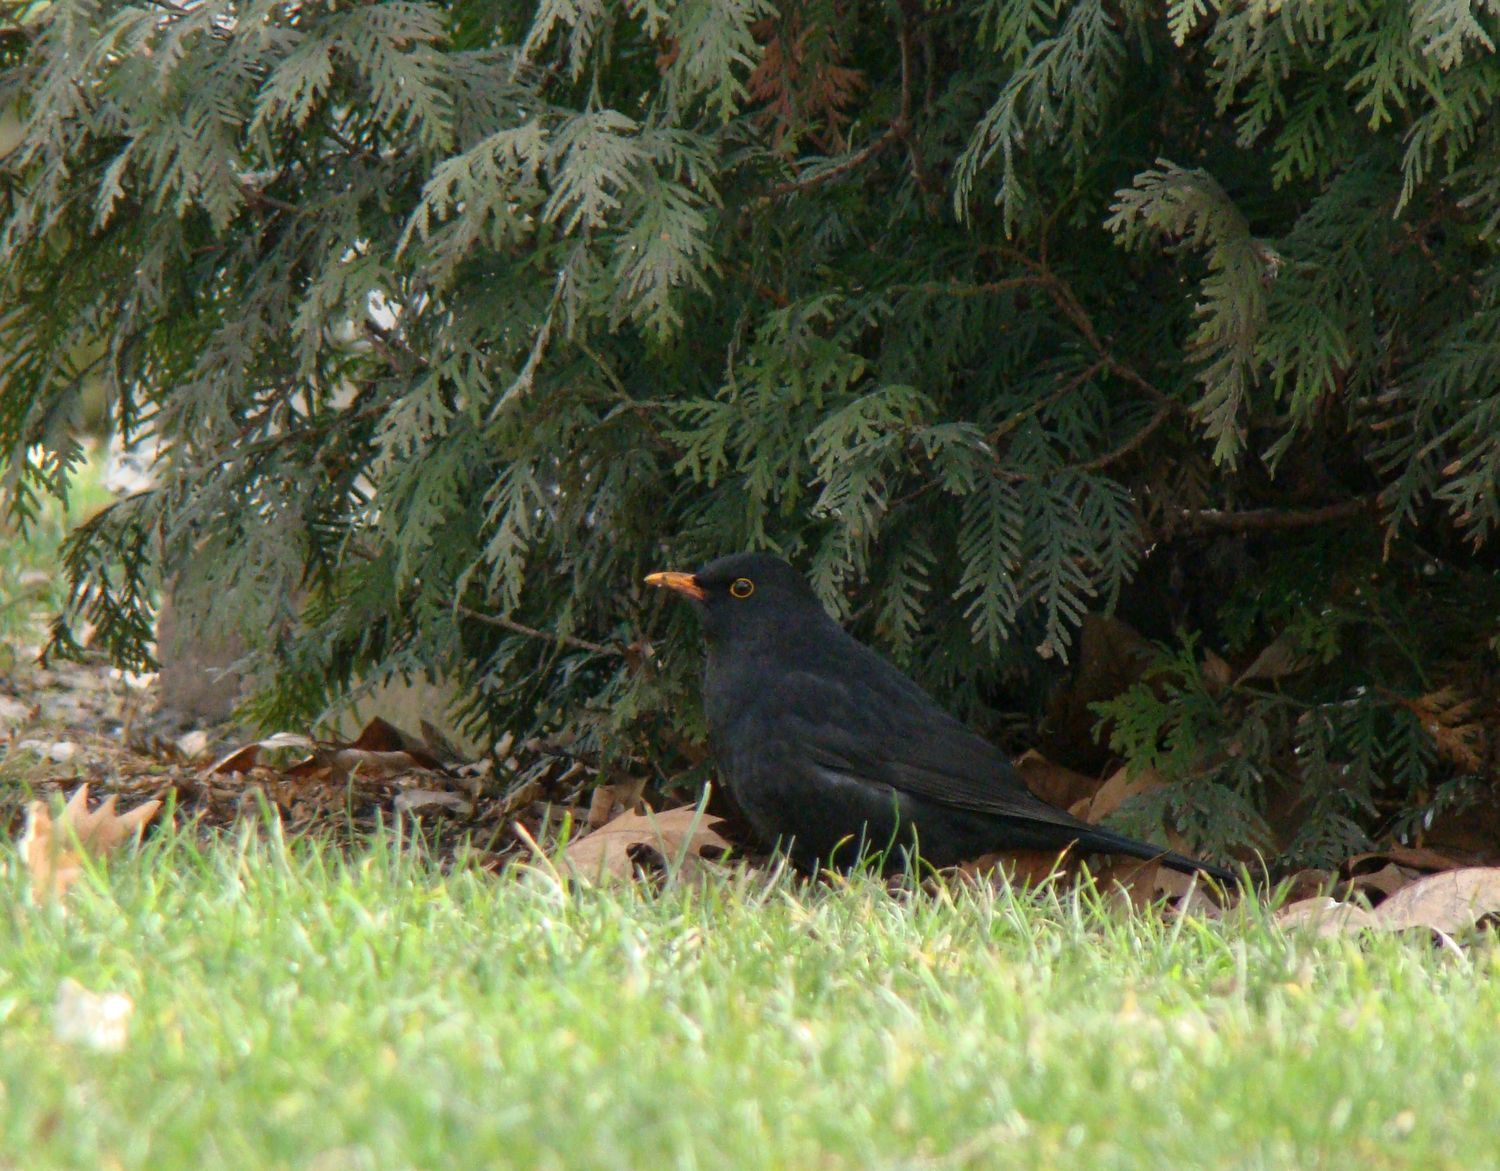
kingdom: Animalia
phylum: Chordata
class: Aves
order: Passeriformes
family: Turdidae
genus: Turdus
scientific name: Turdus merula
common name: Common blackbird
